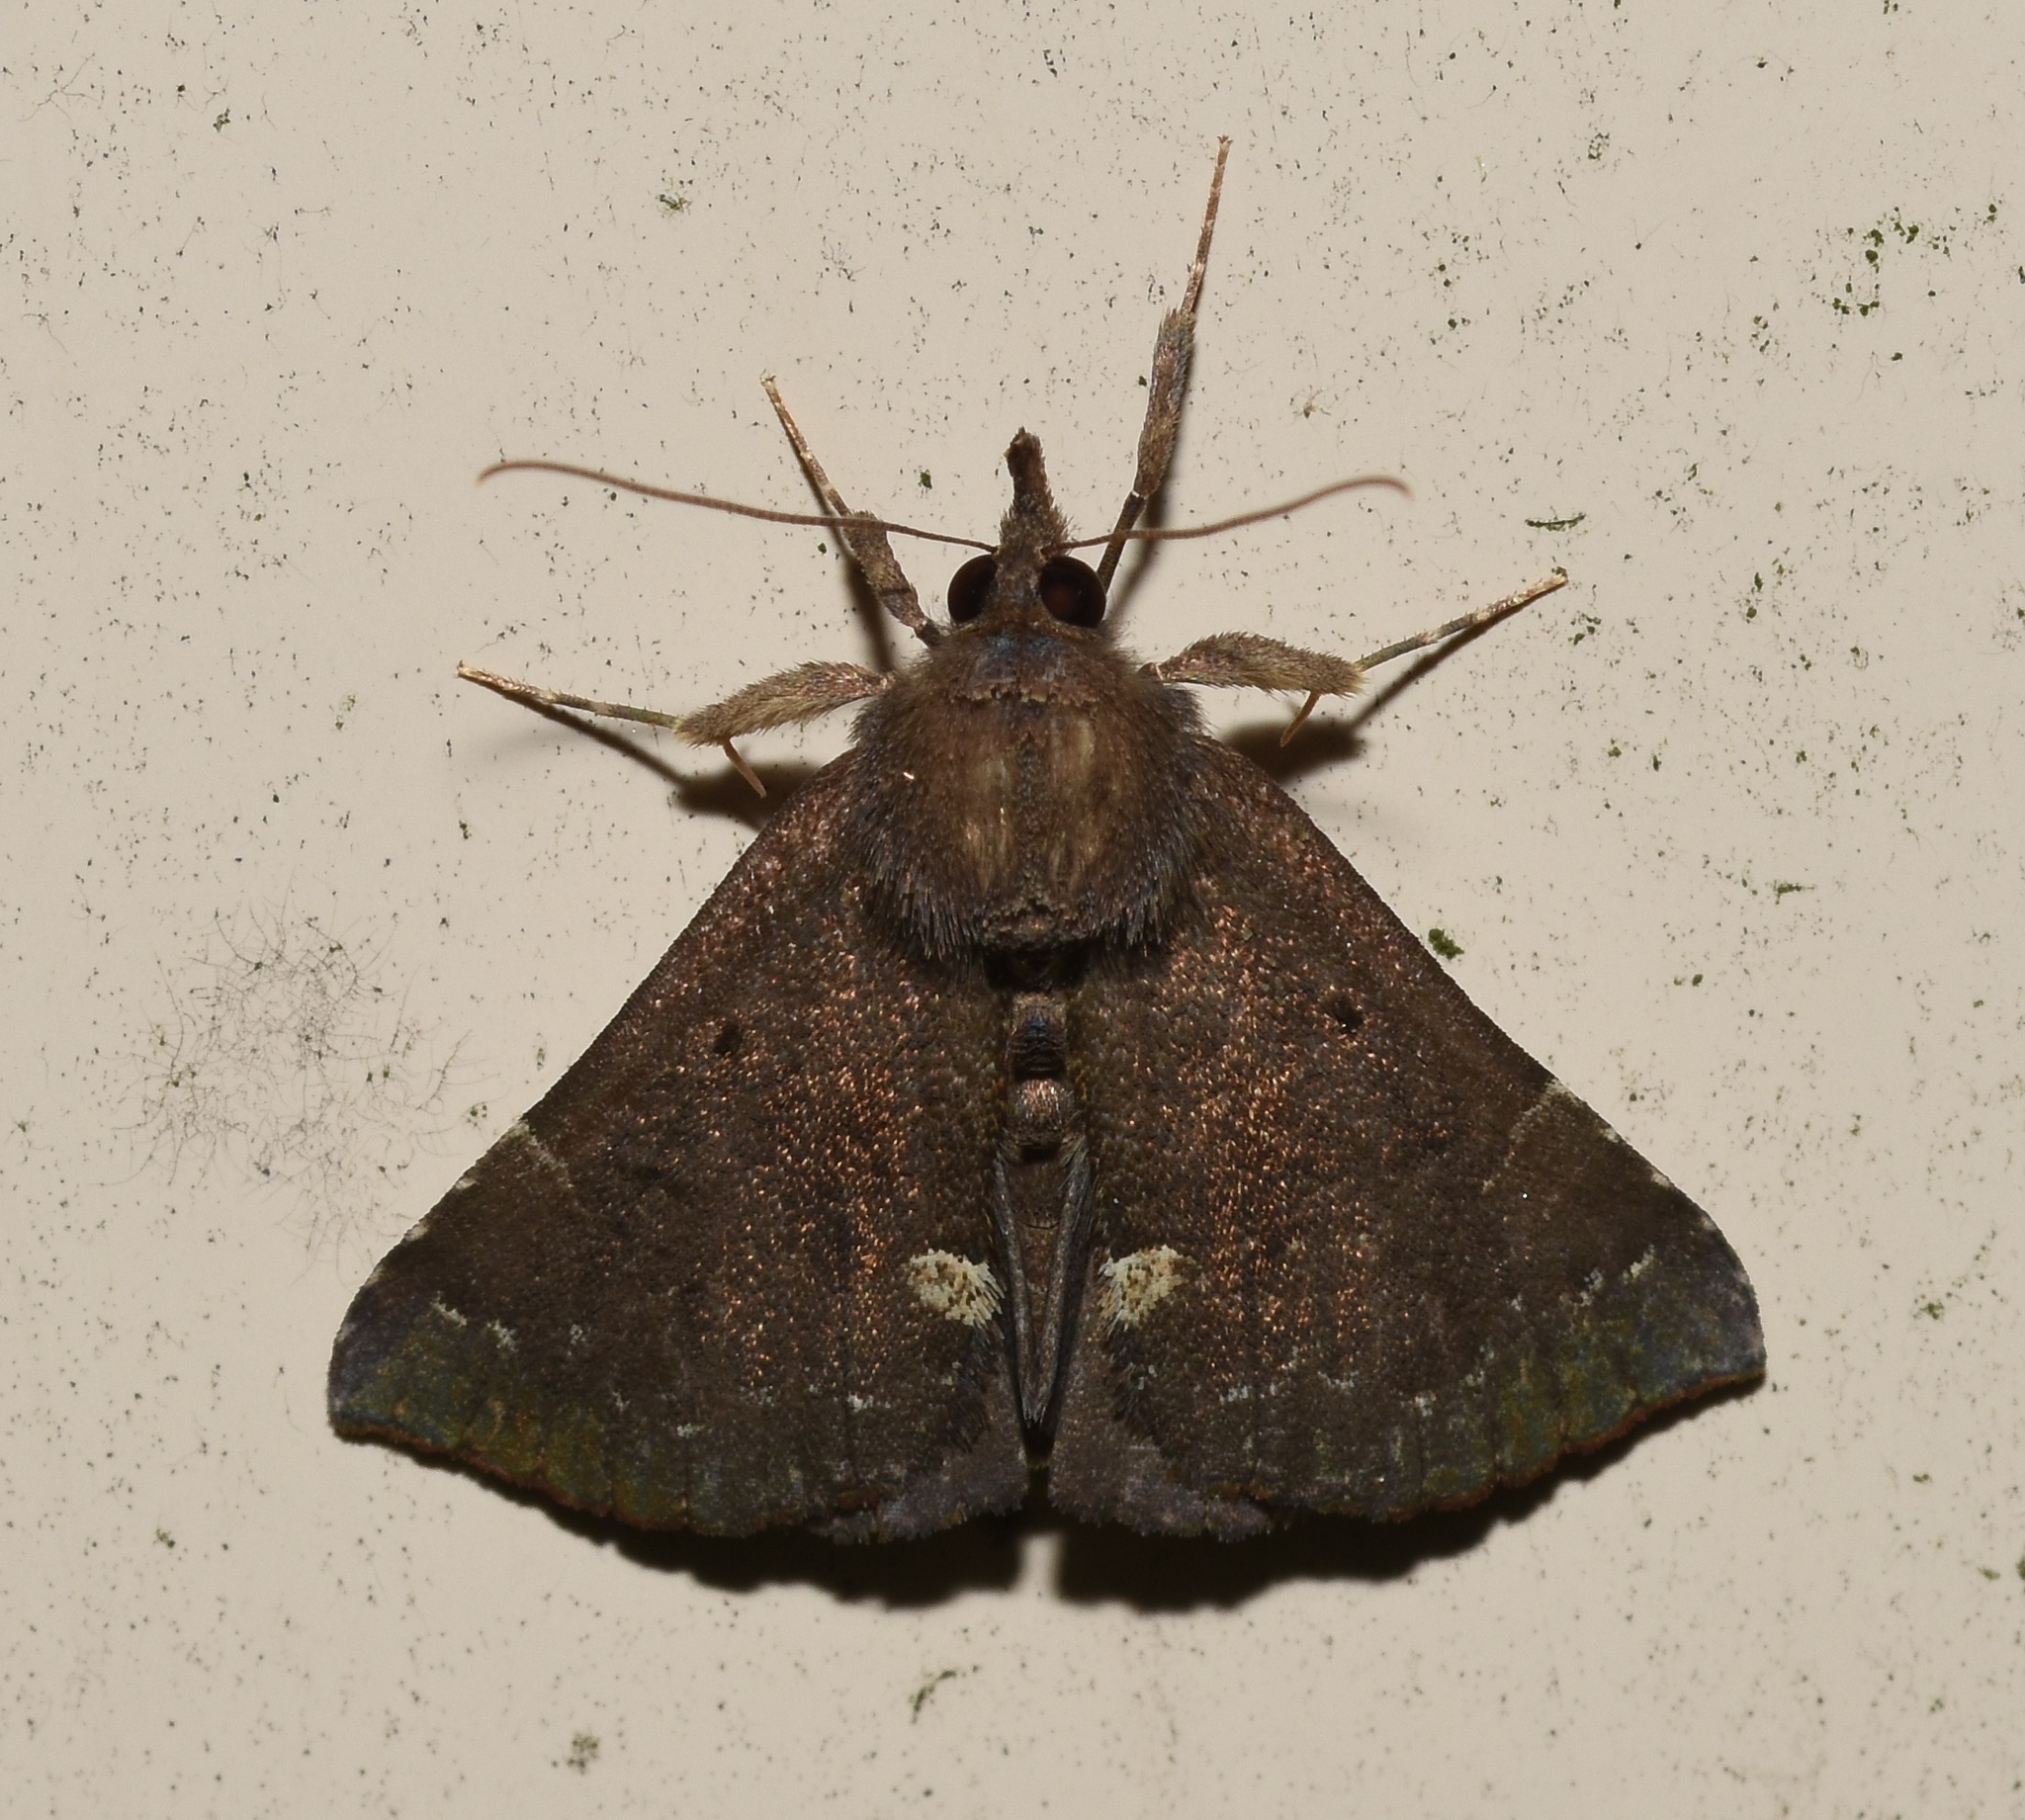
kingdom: Animalia
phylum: Arthropoda
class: Insecta
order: Lepidoptera
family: Erebidae
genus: Hypena
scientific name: Hypena bijugalis
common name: Dimorphic bomolocha moth
